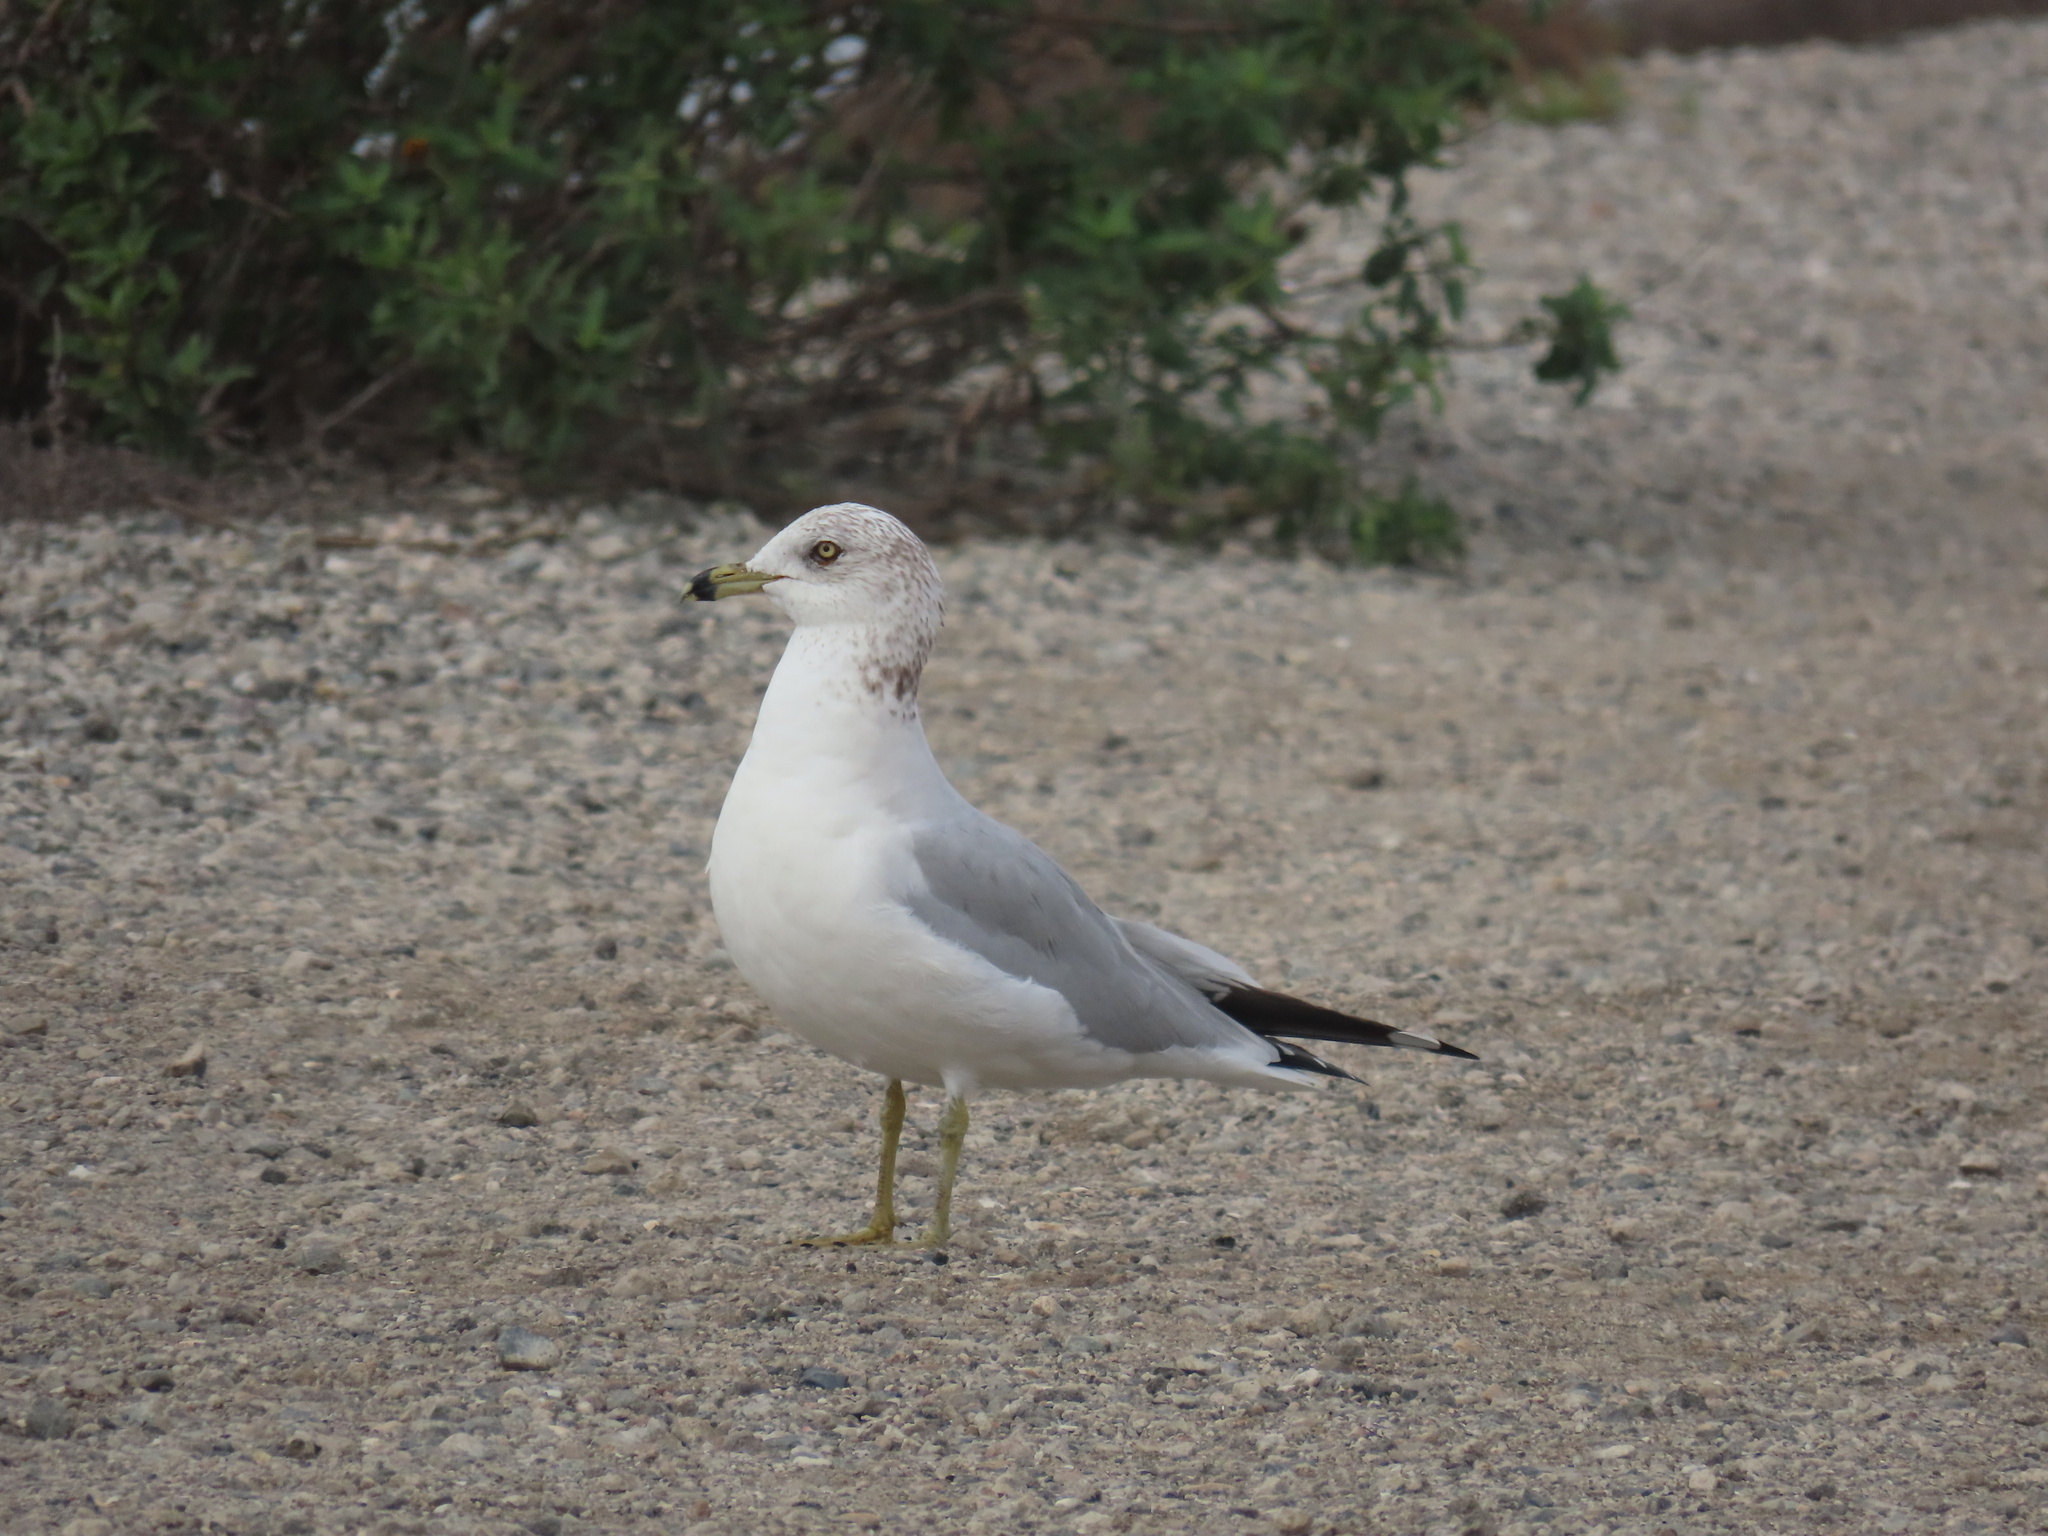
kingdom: Animalia
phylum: Chordata
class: Aves
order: Charadriiformes
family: Laridae
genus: Larus
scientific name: Larus delawarensis
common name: Ring-billed gull
